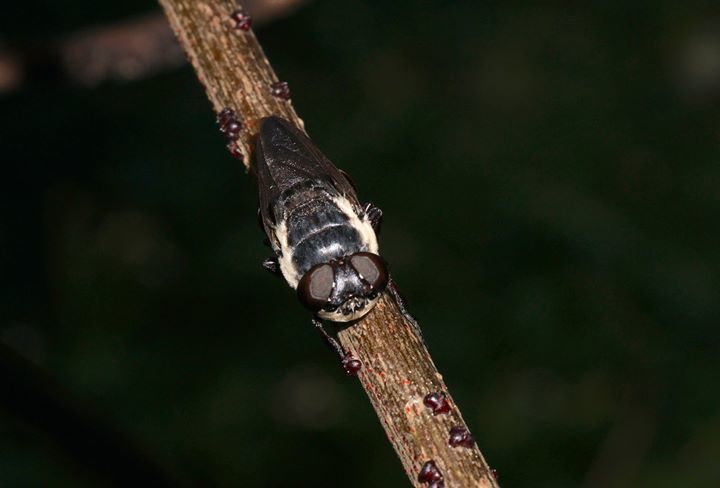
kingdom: Animalia
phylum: Arthropoda
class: Insecta
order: Diptera
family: Oestridae
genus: Cuterebra
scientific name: Cuterebra fontinella
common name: Mouse bot fly
